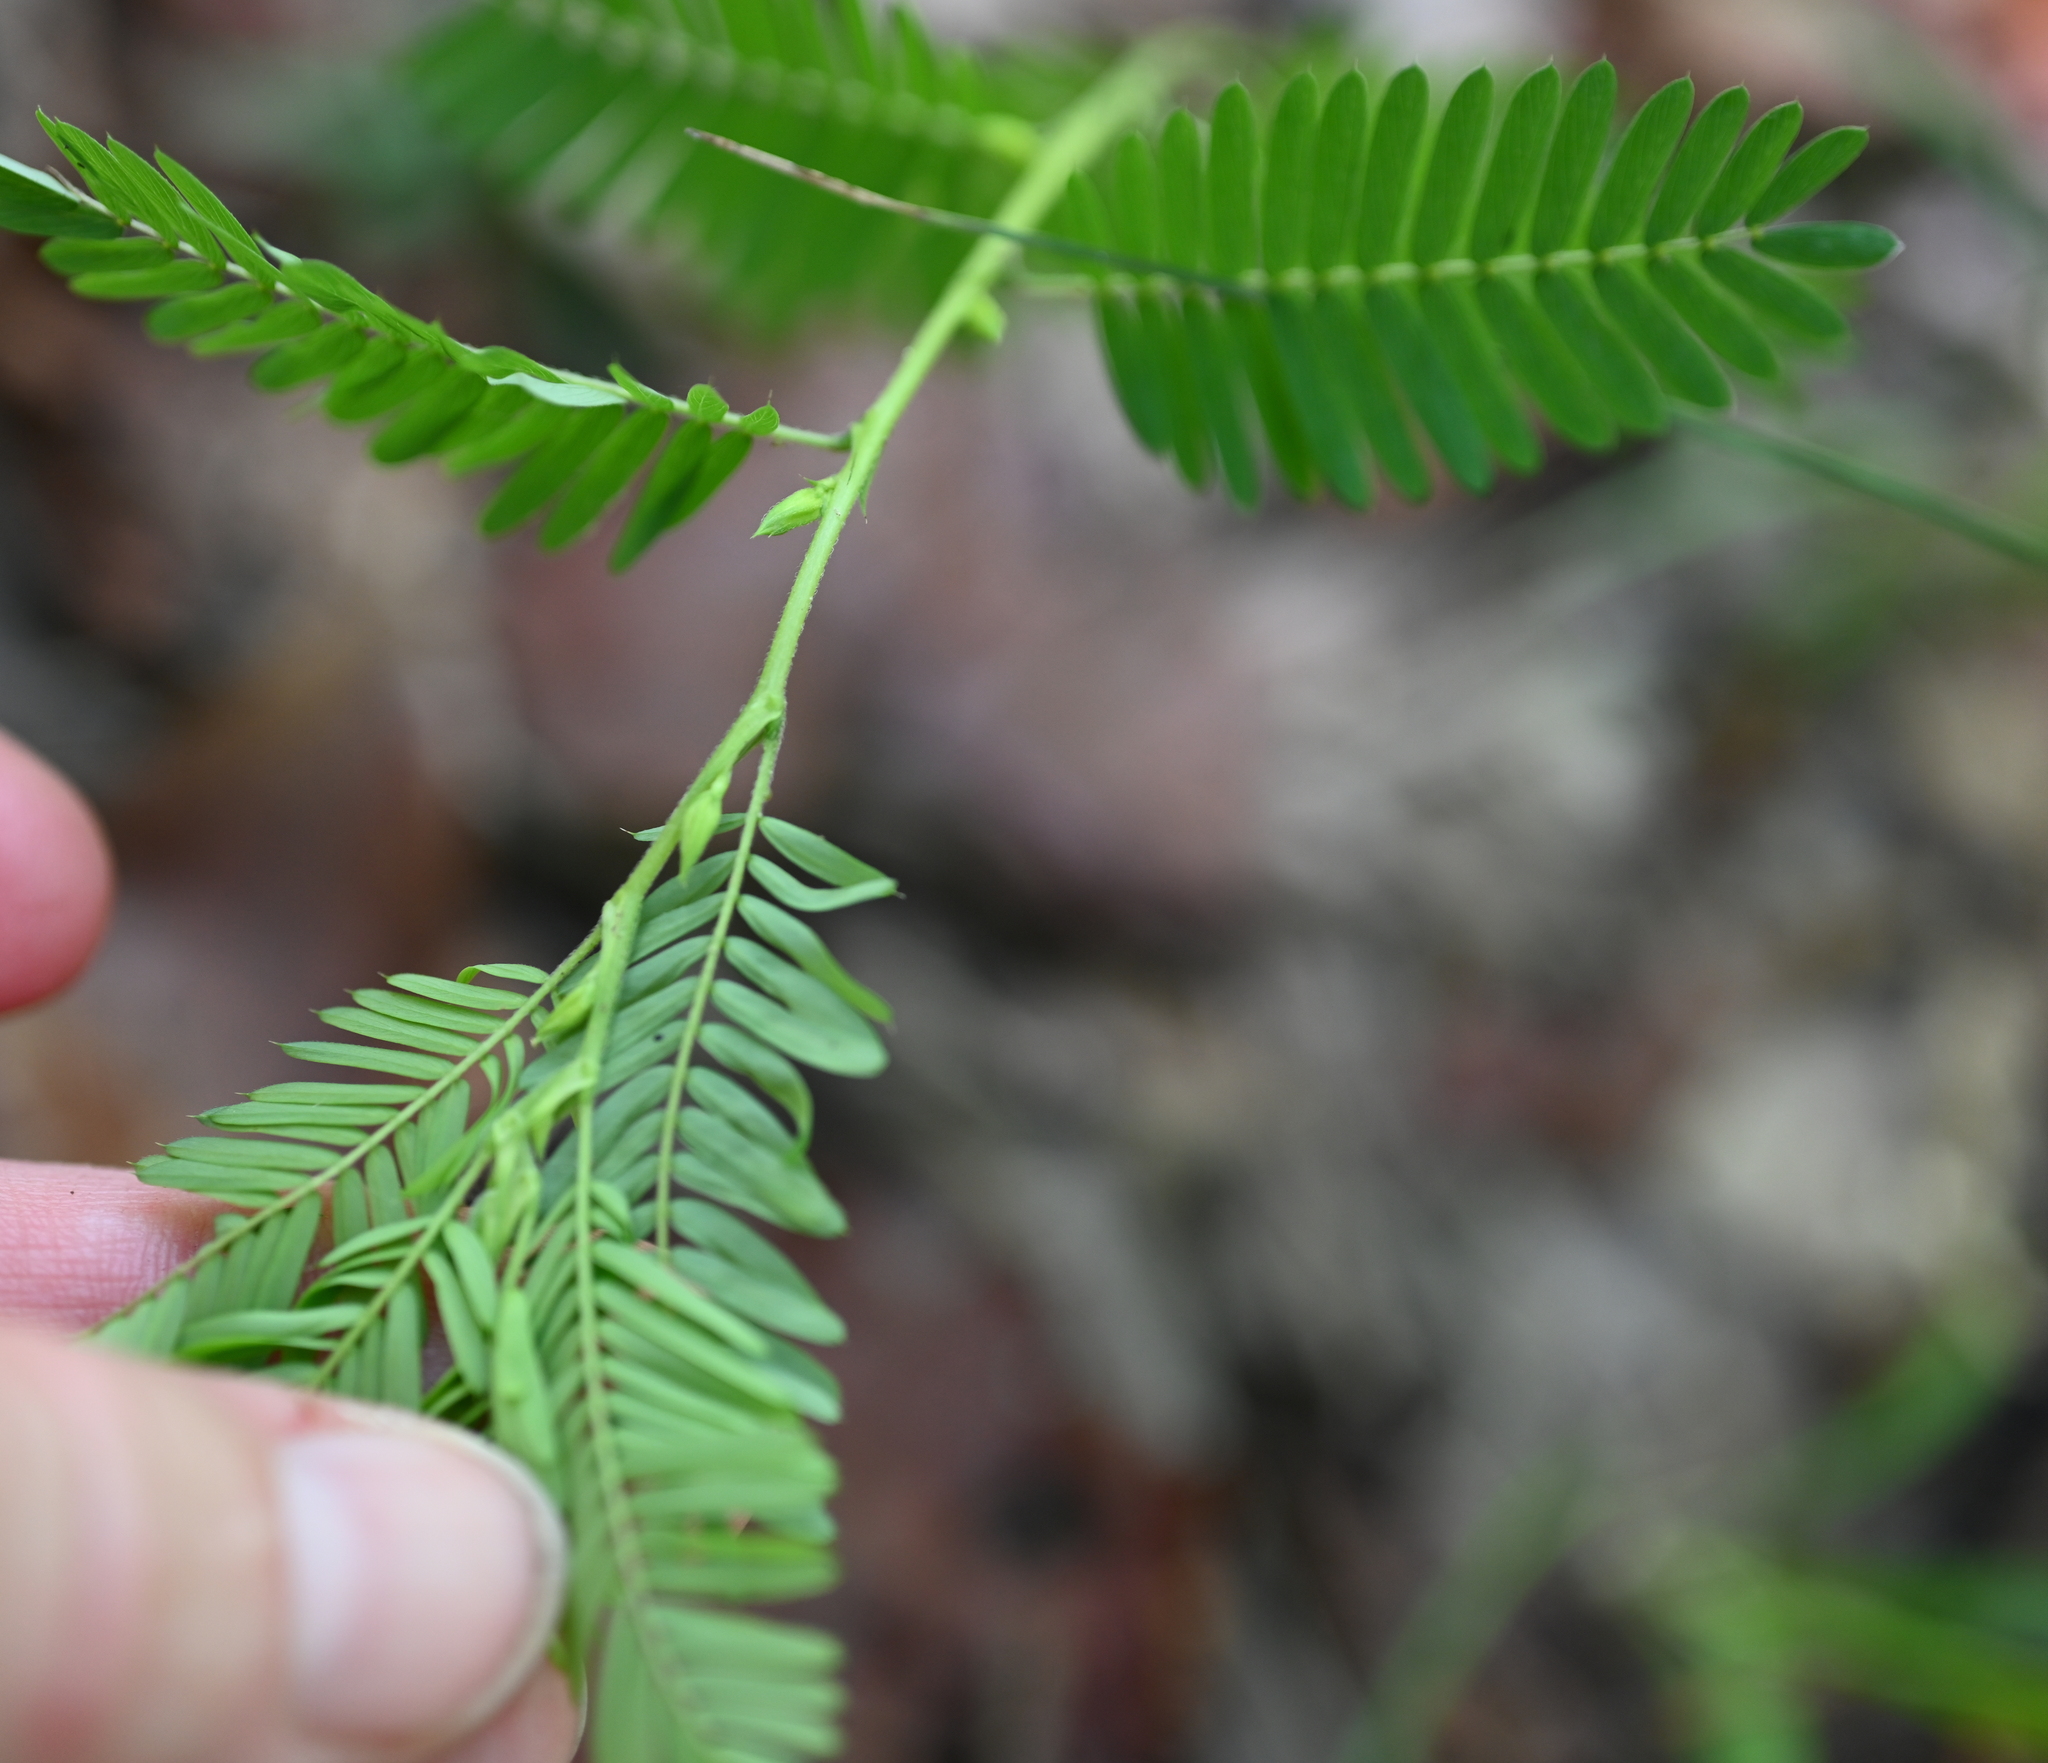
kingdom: Plantae
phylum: Tracheophyta
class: Magnoliopsida
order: Fabales
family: Fabaceae
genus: Chamaecrista
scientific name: Chamaecrista nictitans
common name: Sensitive cassia
